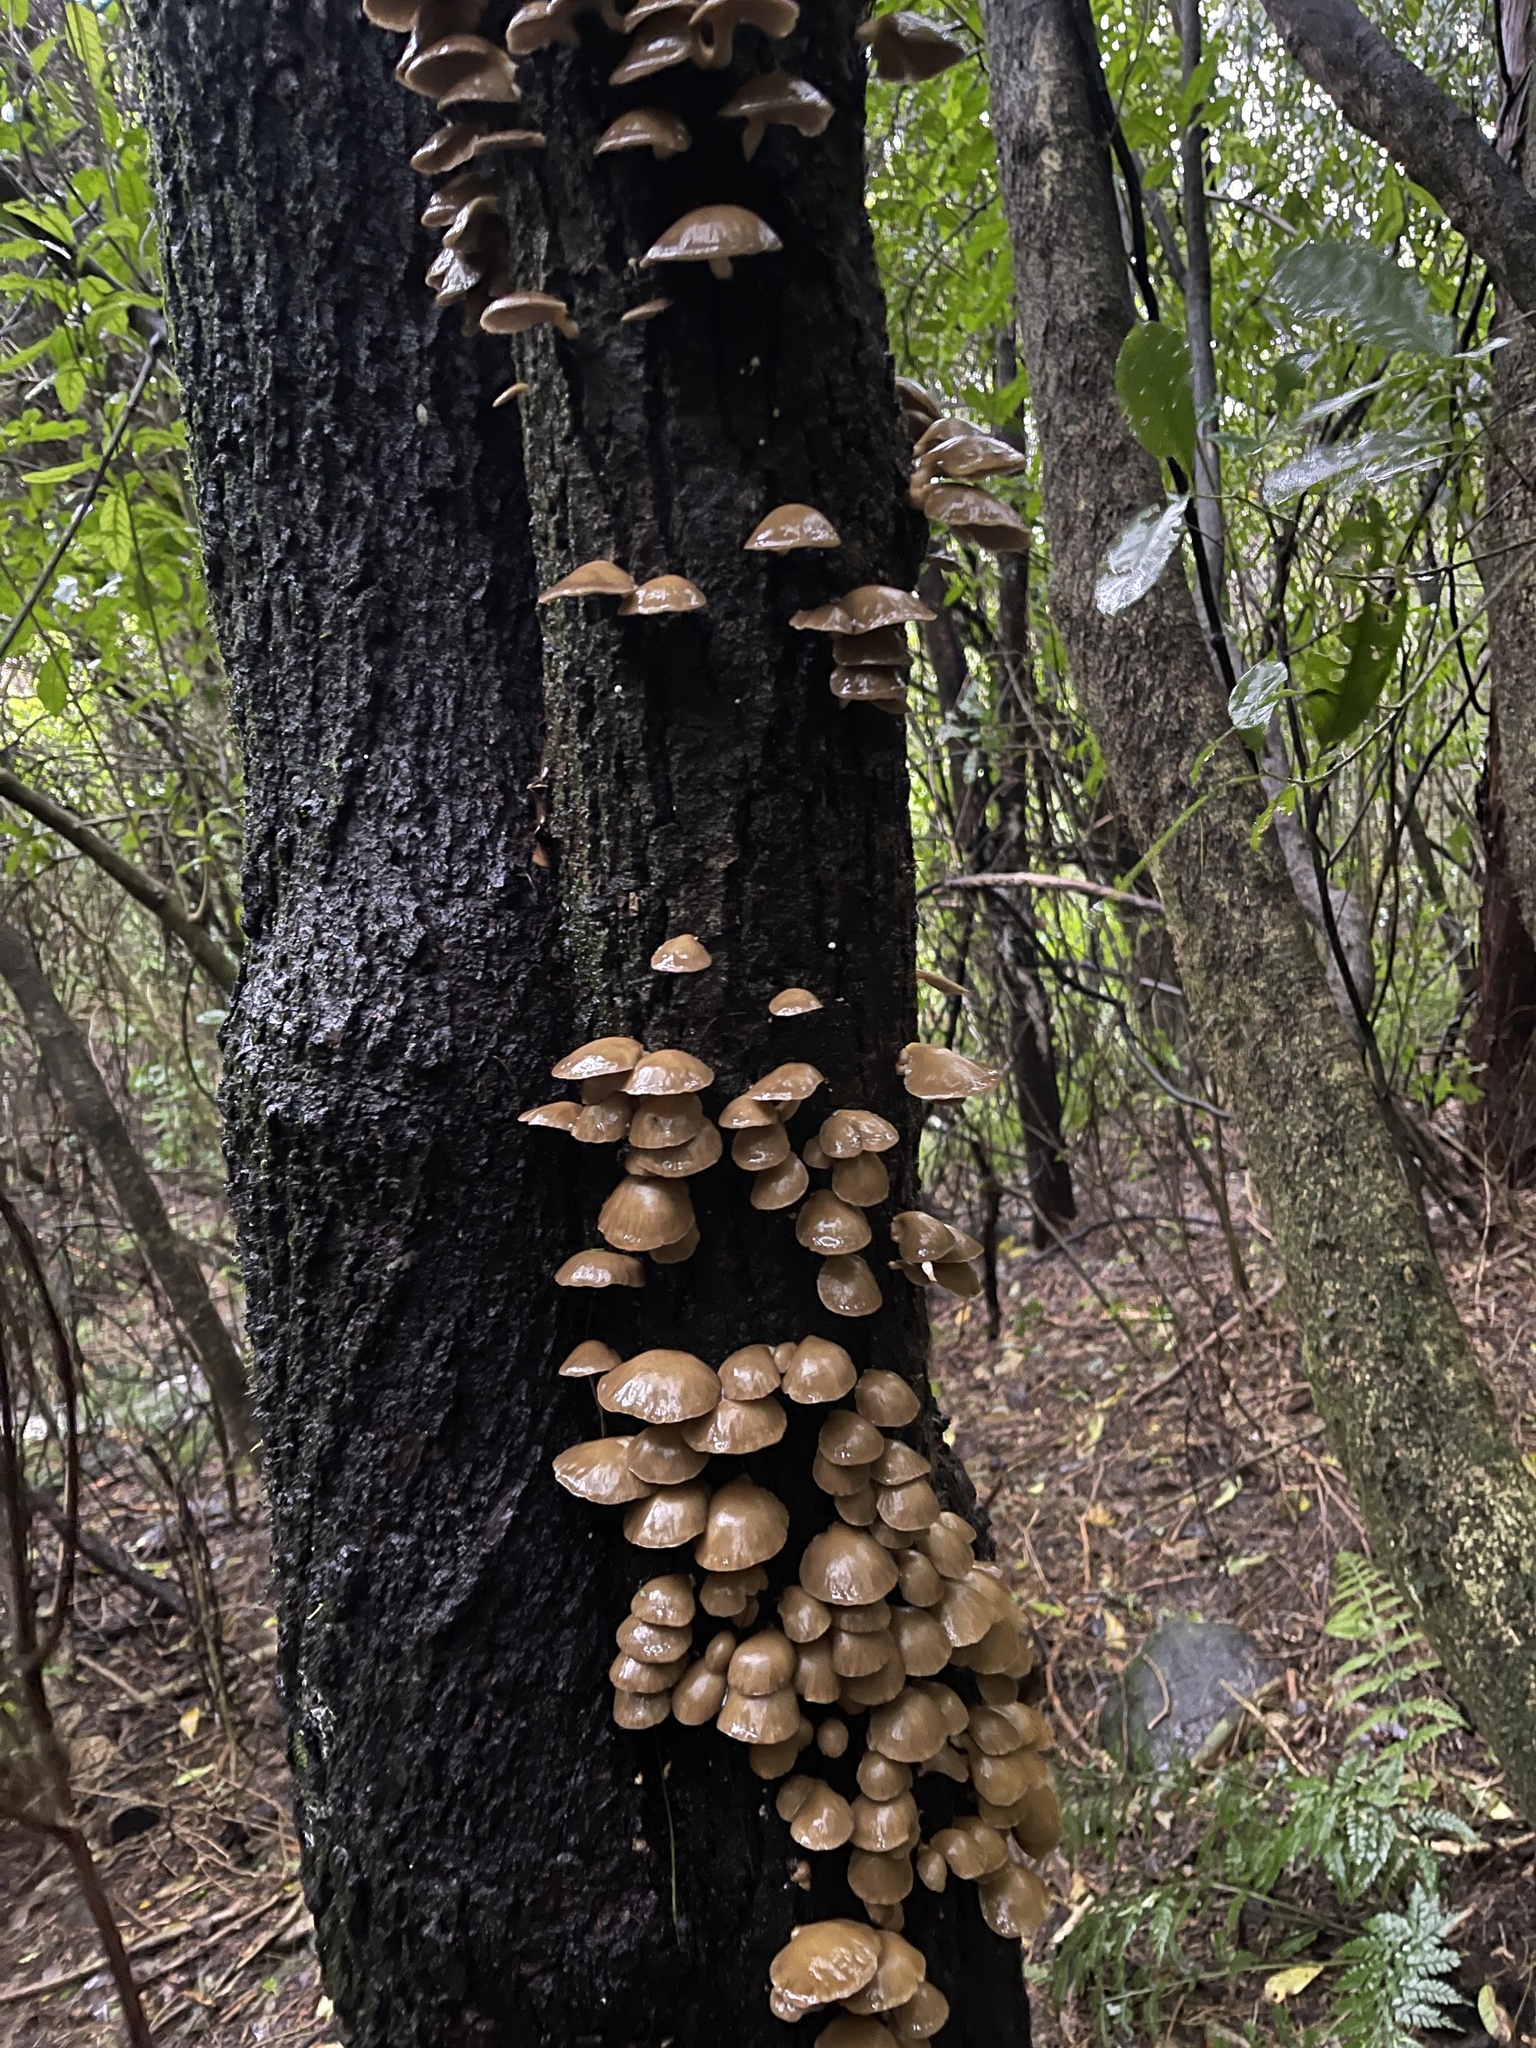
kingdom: Fungi
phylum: Basidiomycota
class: Agaricomycetes
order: Agaricales
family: Mycenaceae
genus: Panellus
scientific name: Panellus longinquus
